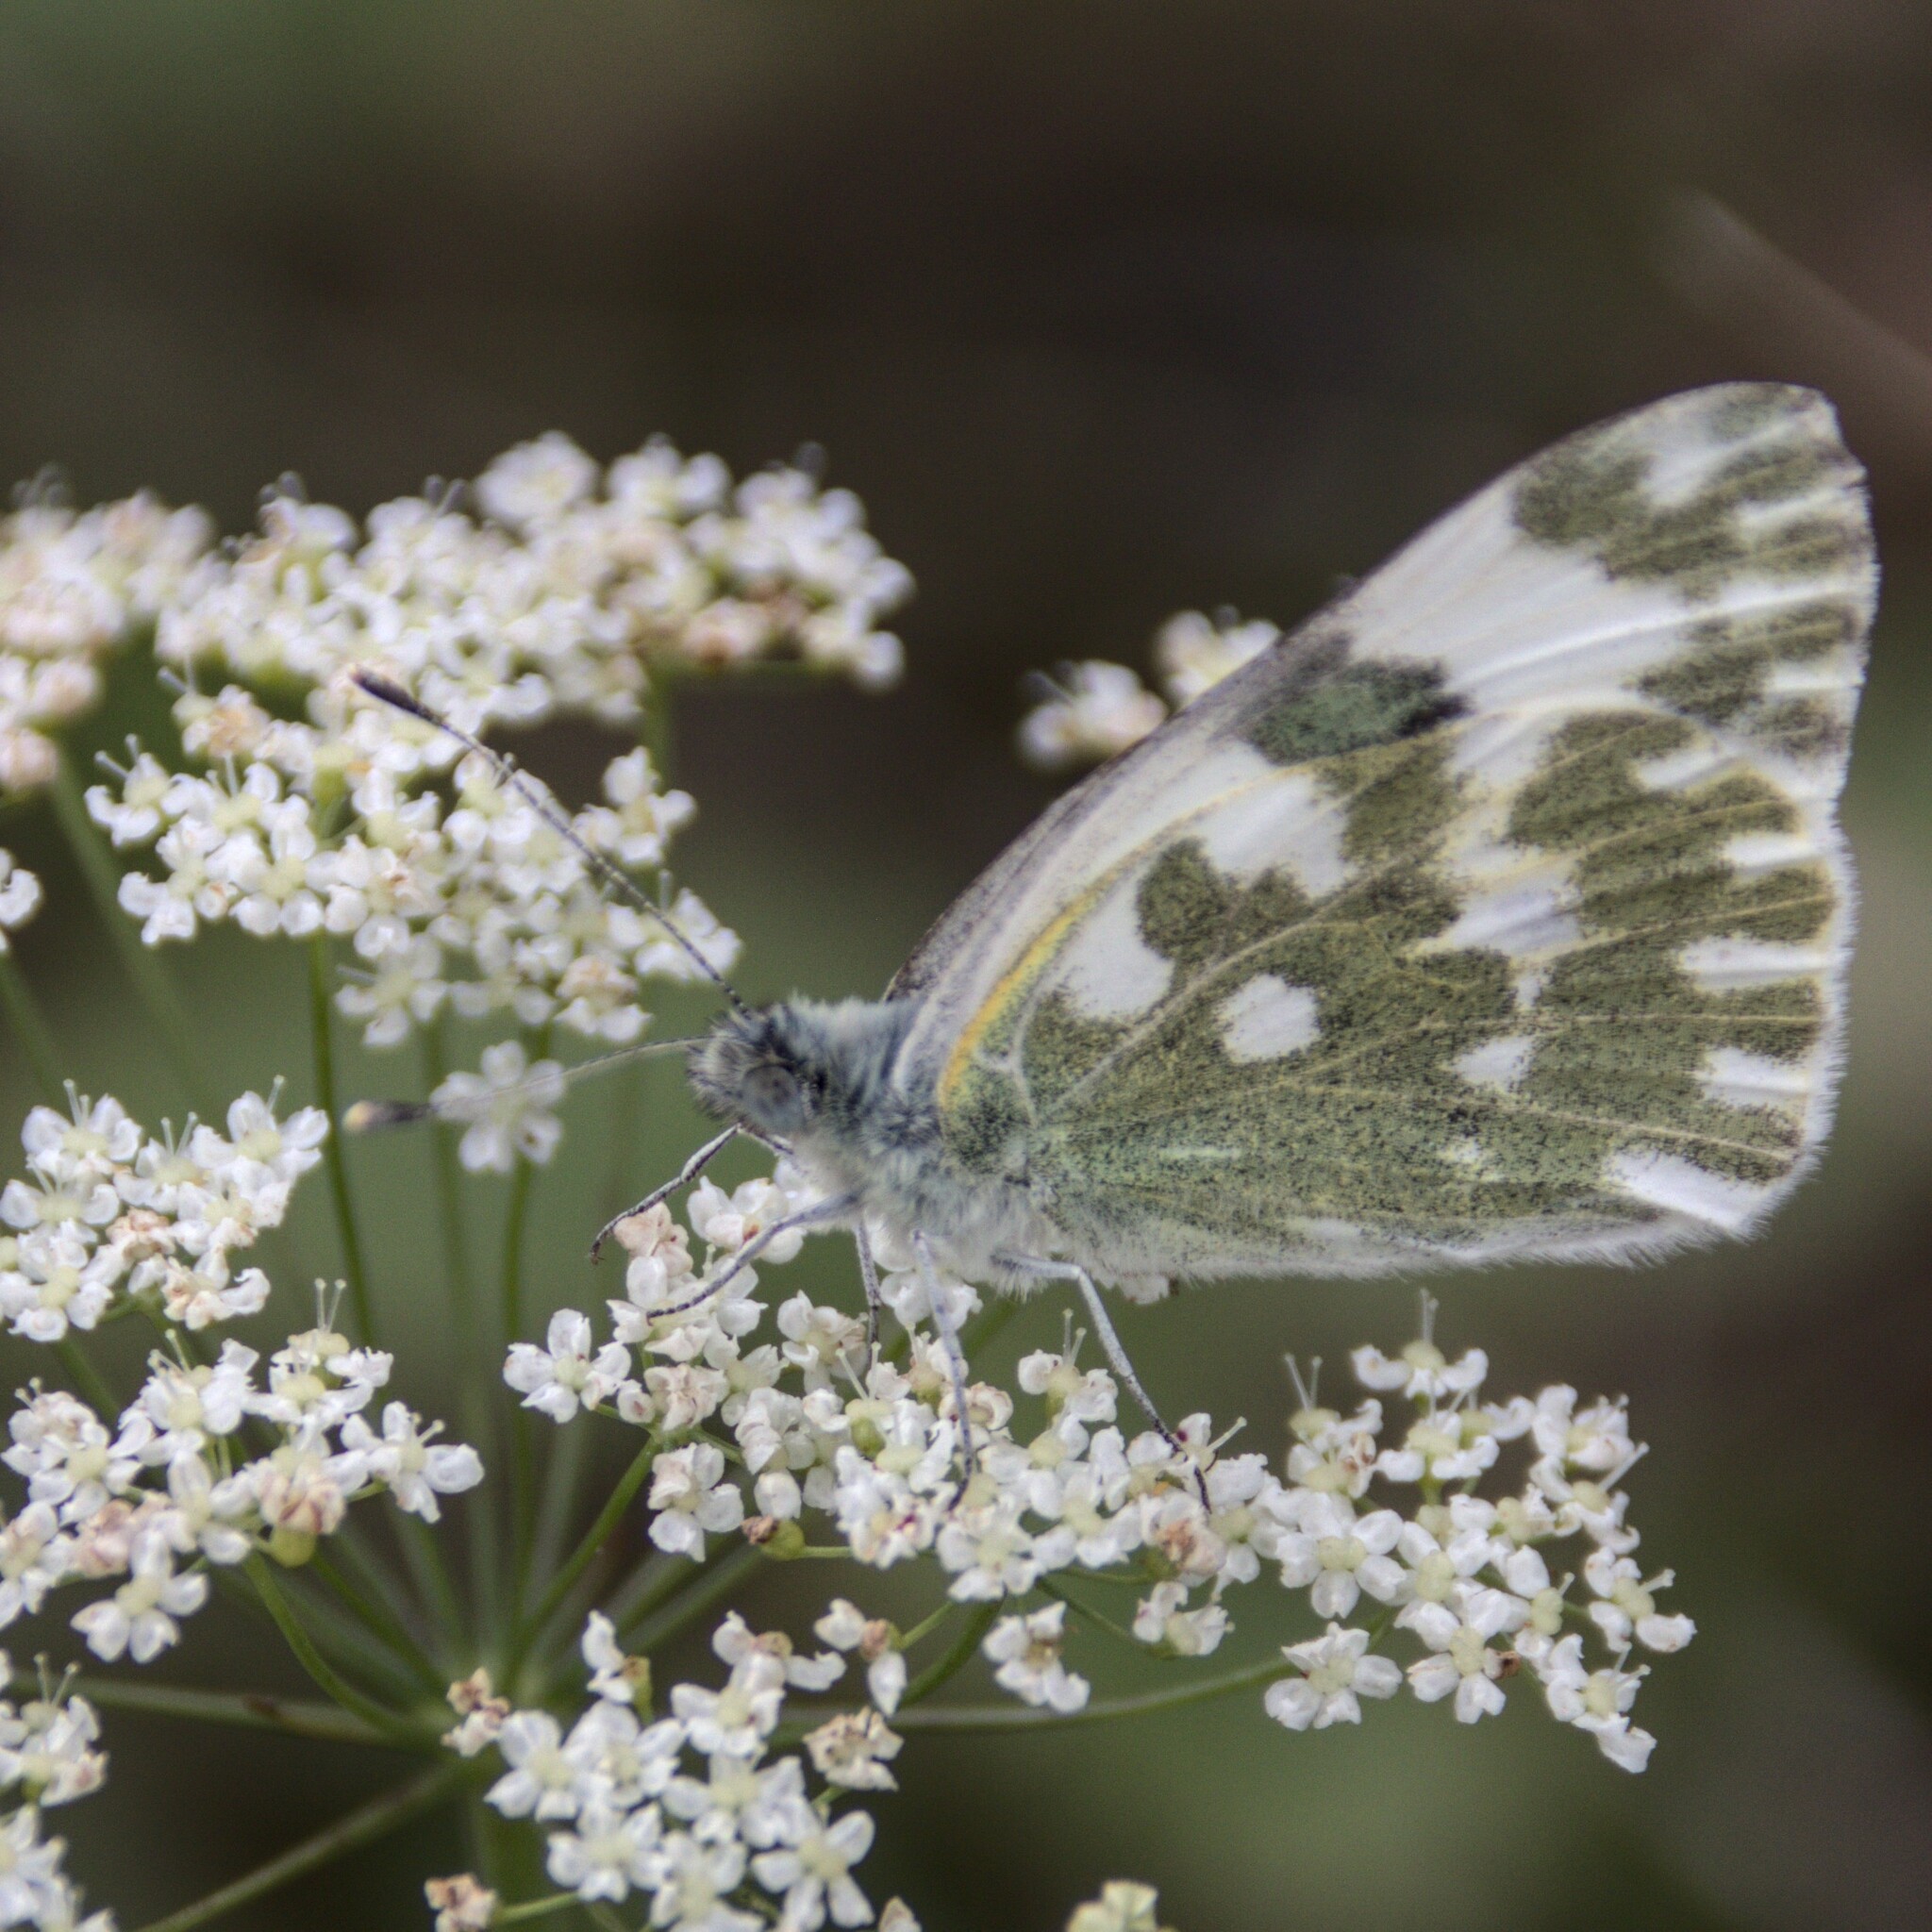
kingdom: Animalia
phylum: Arthropoda
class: Insecta
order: Lepidoptera
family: Pieridae
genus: Pontia
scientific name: Pontia edusa
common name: Eastern bath white
